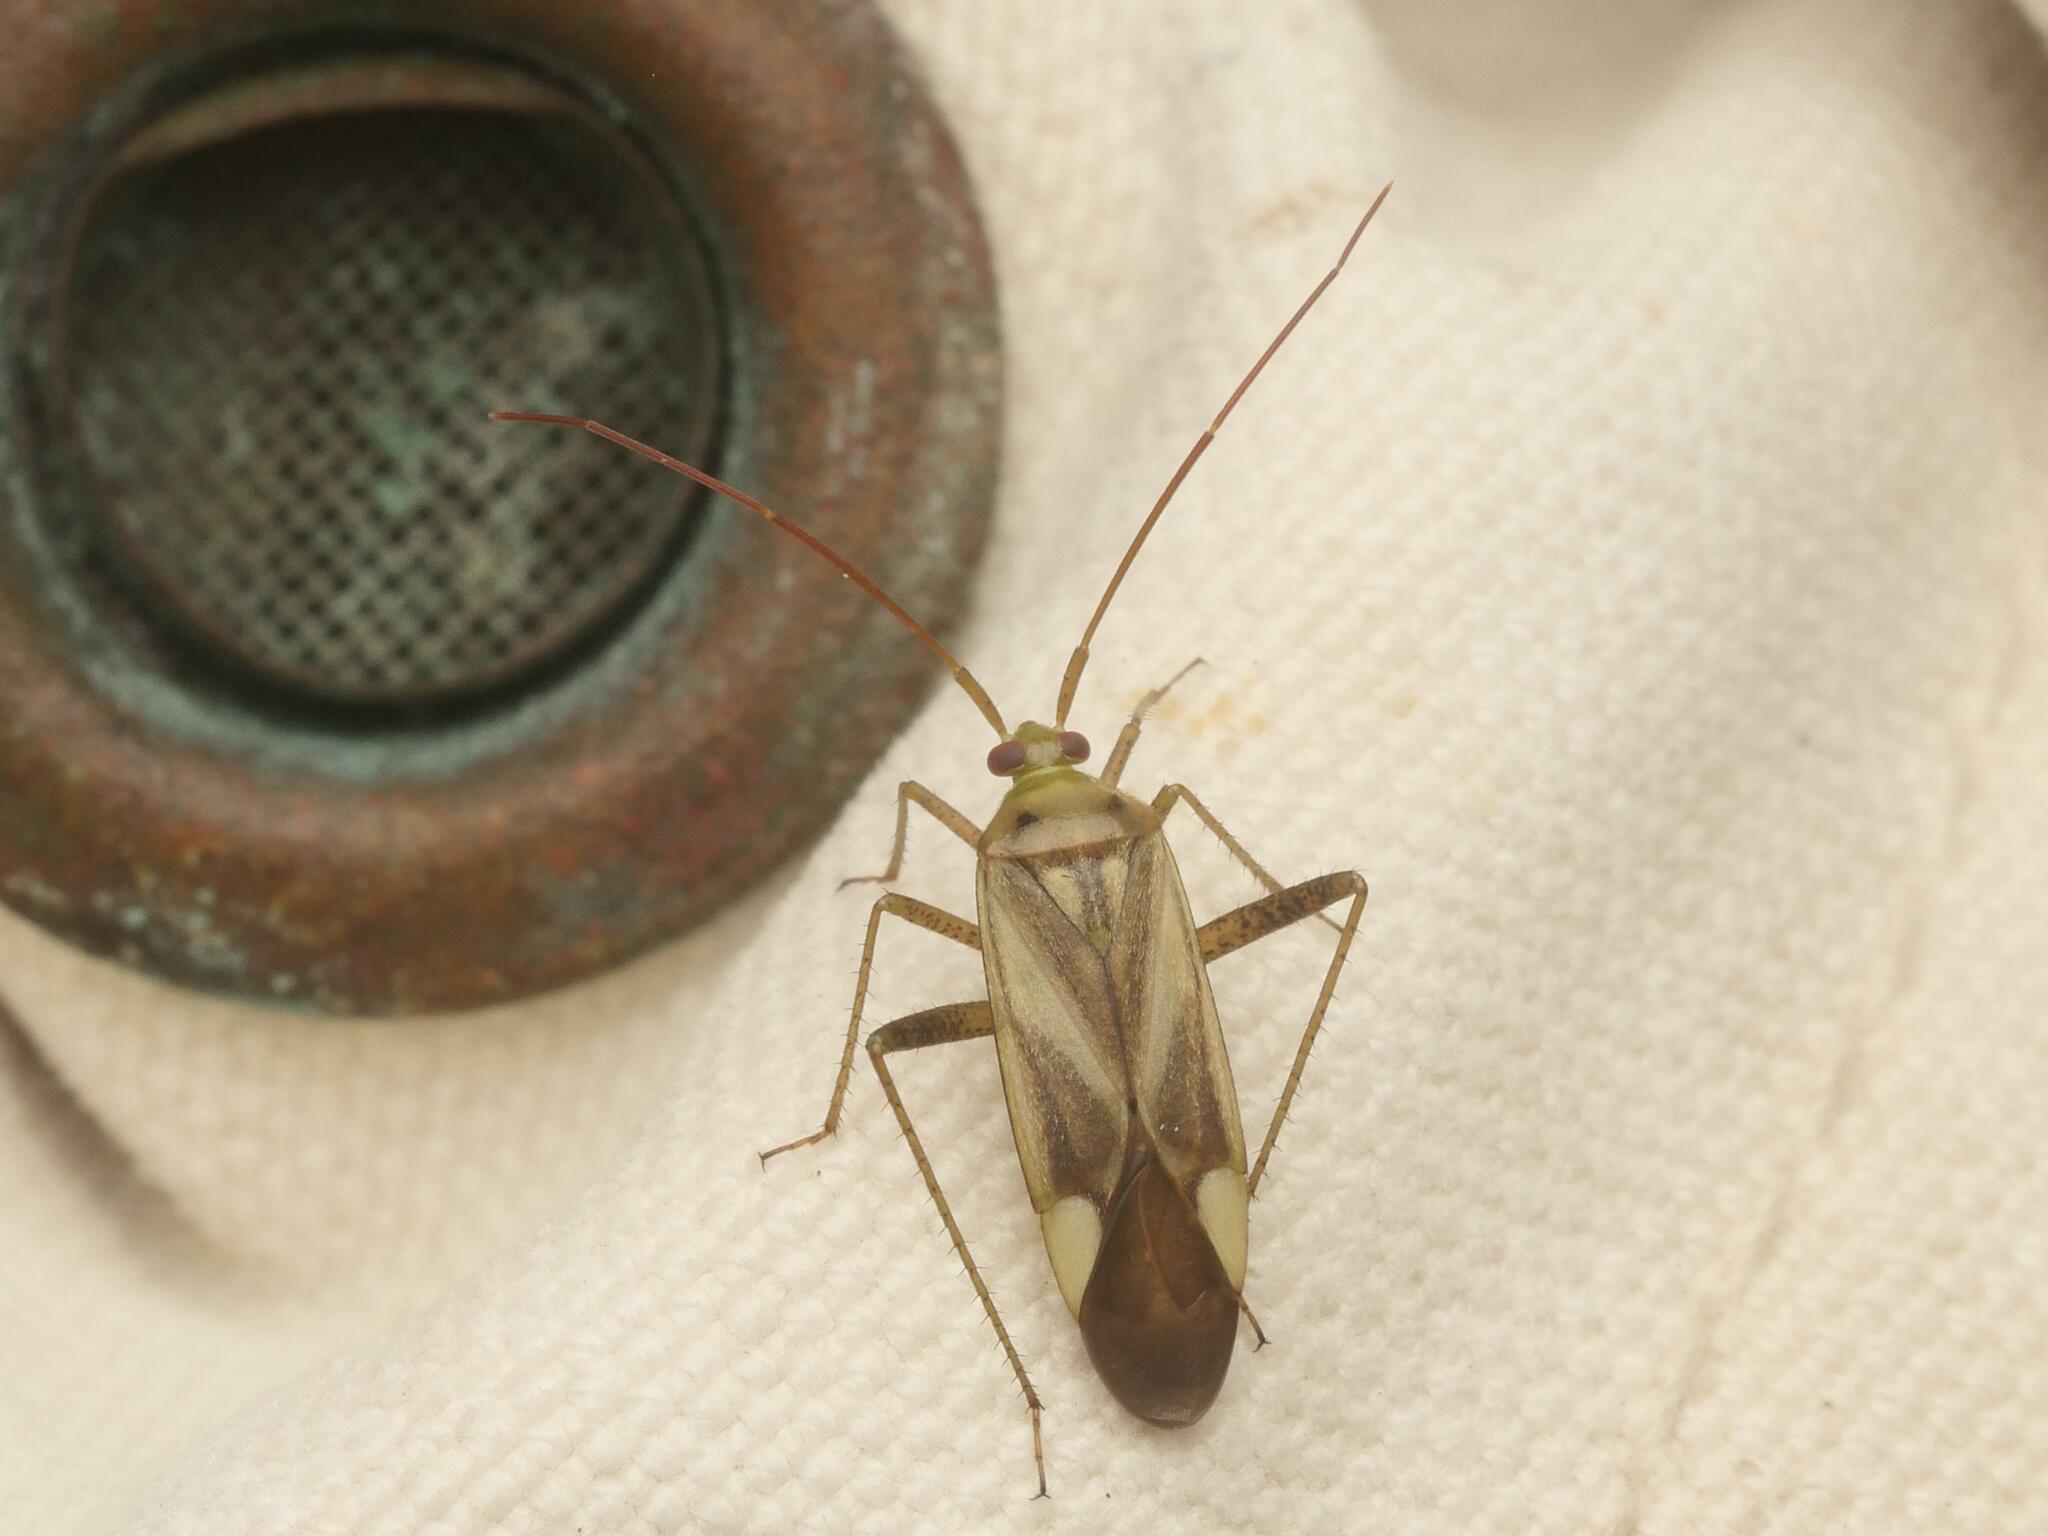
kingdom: Animalia
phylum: Arthropoda
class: Insecta
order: Hemiptera
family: Miridae
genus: Adelphocoris
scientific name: Adelphocoris lineolatus
